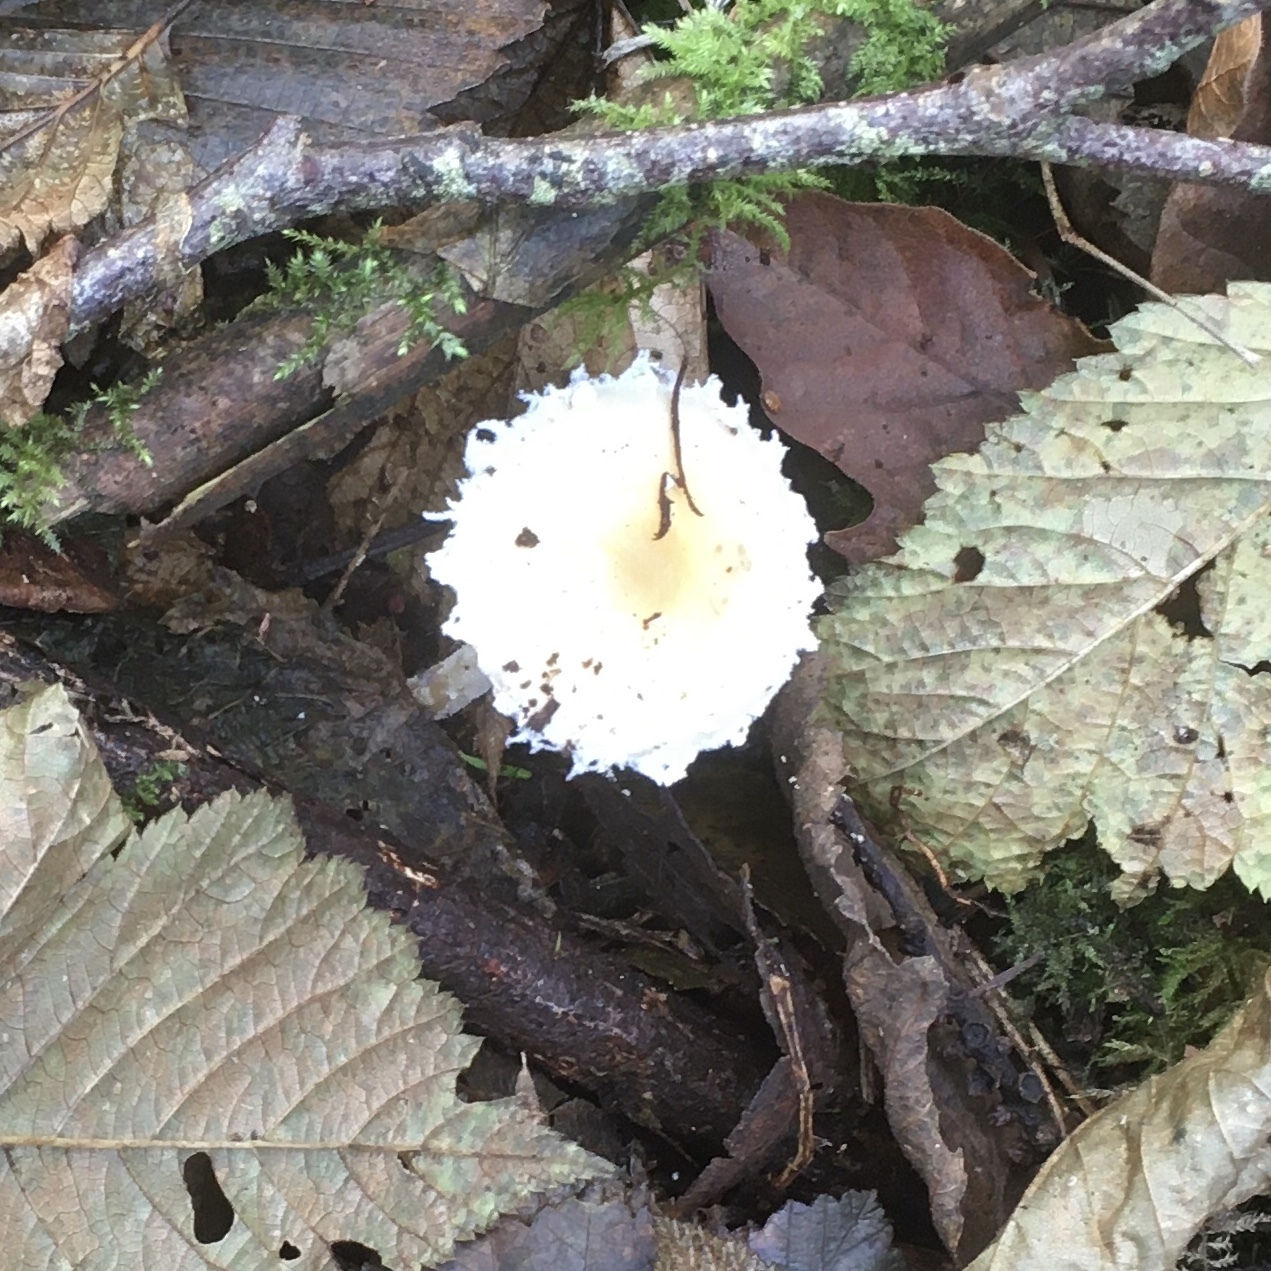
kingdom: Fungi
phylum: Basidiomycota
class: Agaricomycetes
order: Agaricales
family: Strophariaceae
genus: Stropharia
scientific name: Stropharia ambigua
